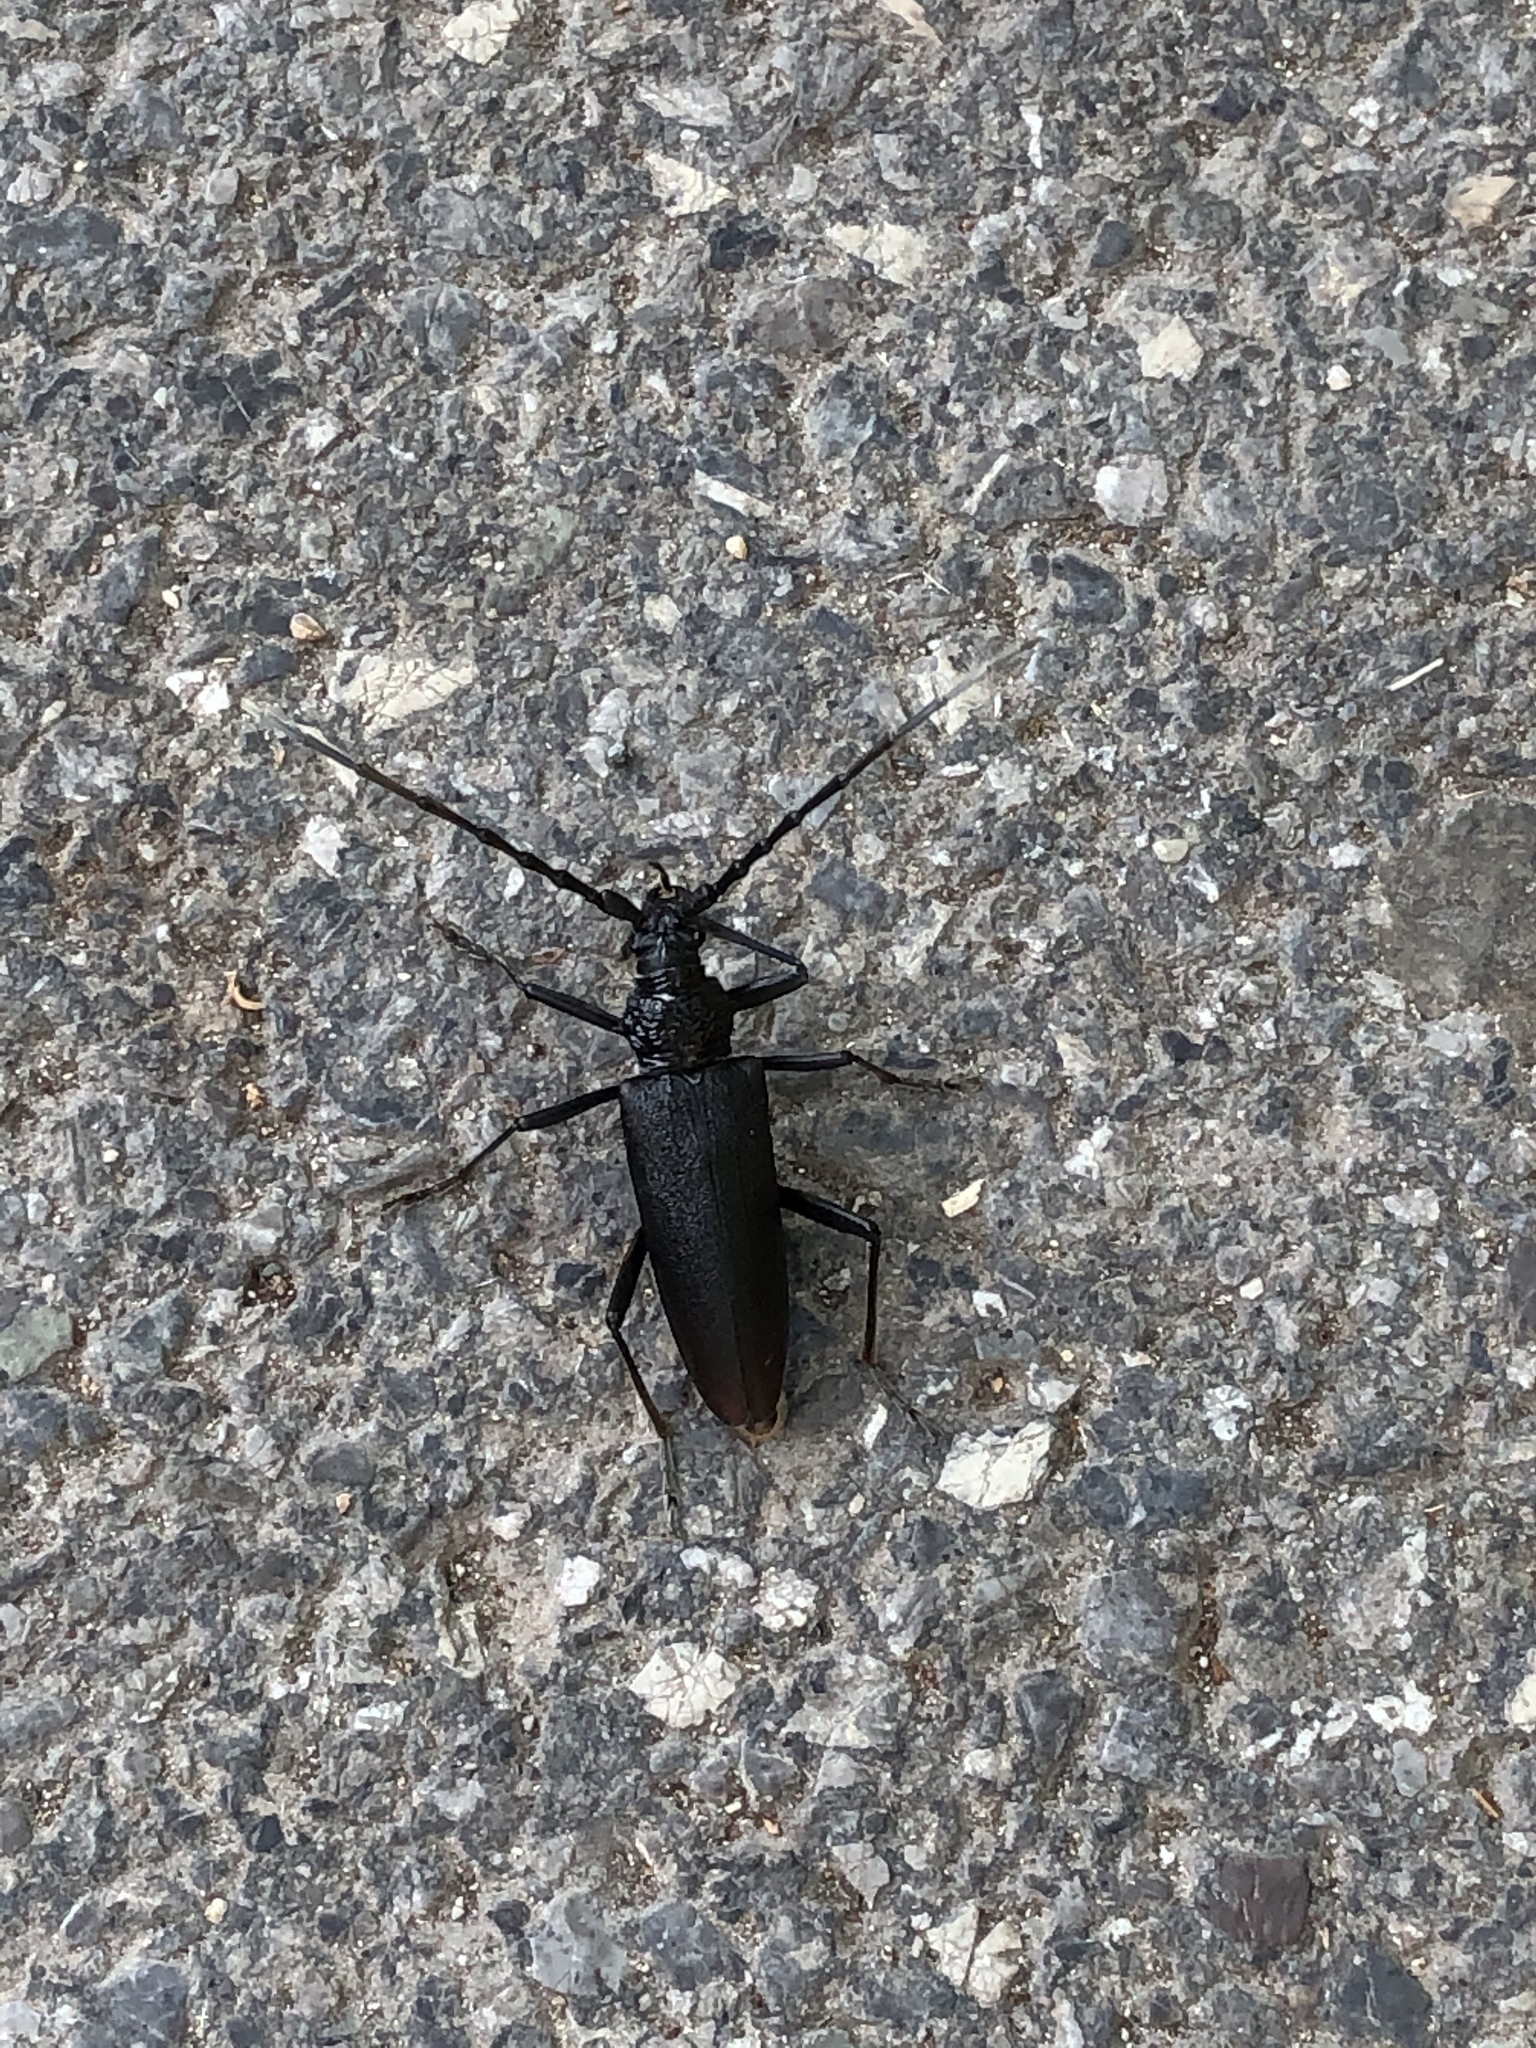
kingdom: Animalia
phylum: Arthropoda
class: Insecta
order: Coleoptera
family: Cerambycidae
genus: Cerambyx
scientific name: Cerambyx cerdo
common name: Cerambyx longicorn
